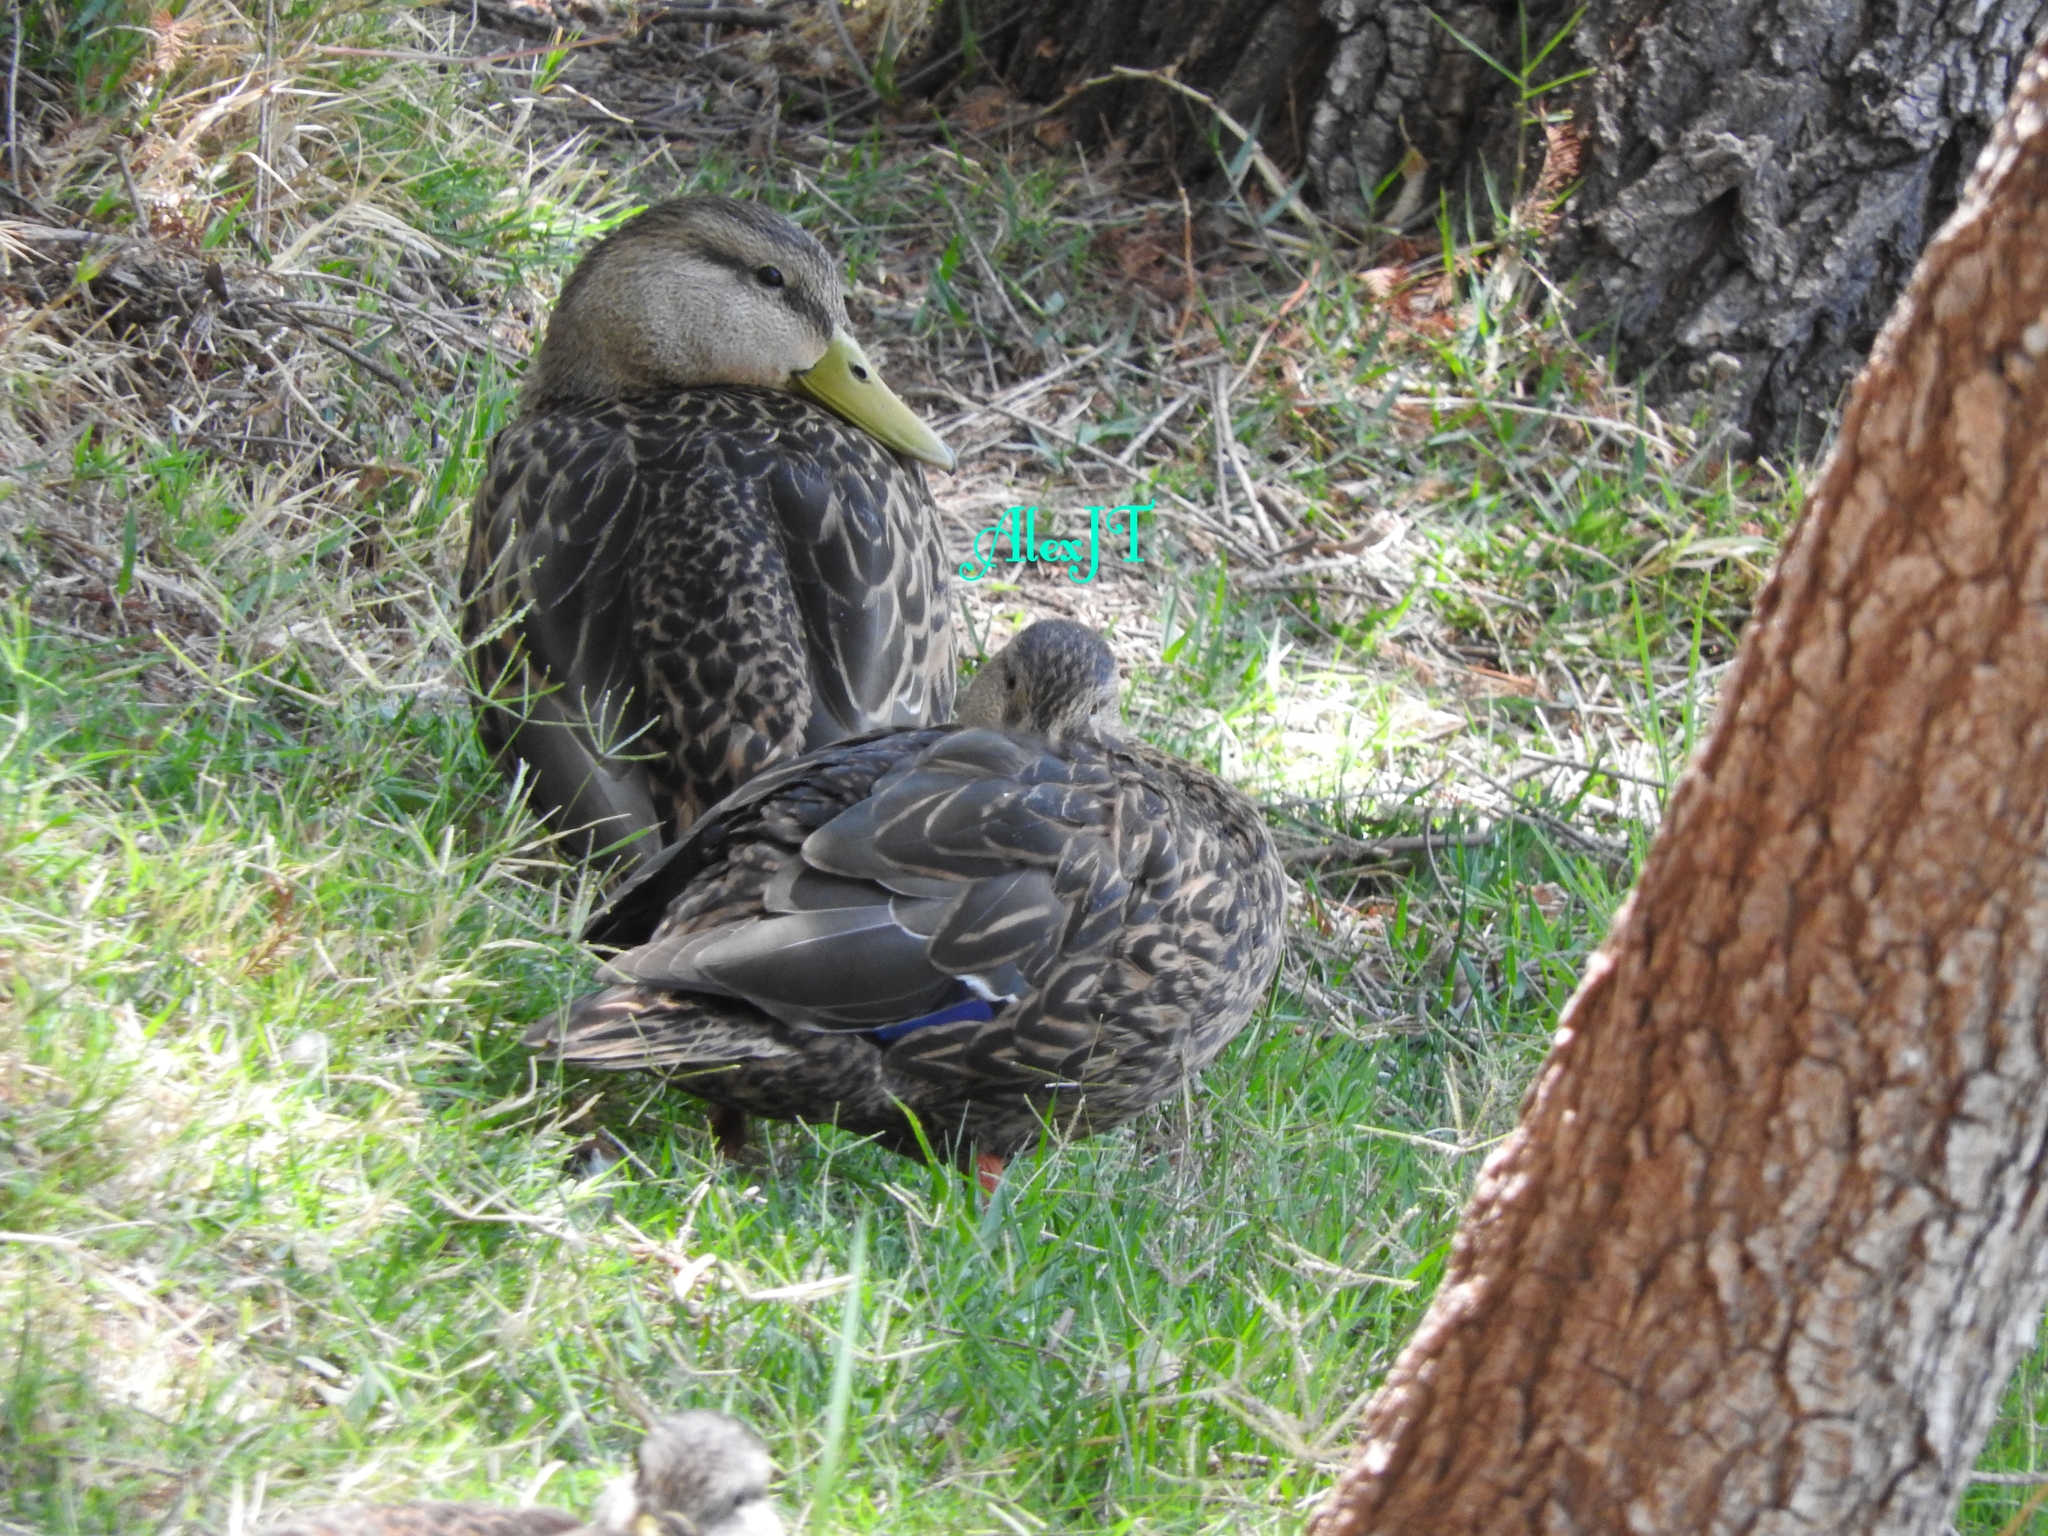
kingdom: Animalia
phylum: Chordata
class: Aves
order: Anseriformes
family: Anatidae
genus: Anas
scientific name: Anas diazi
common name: Mexican duck
